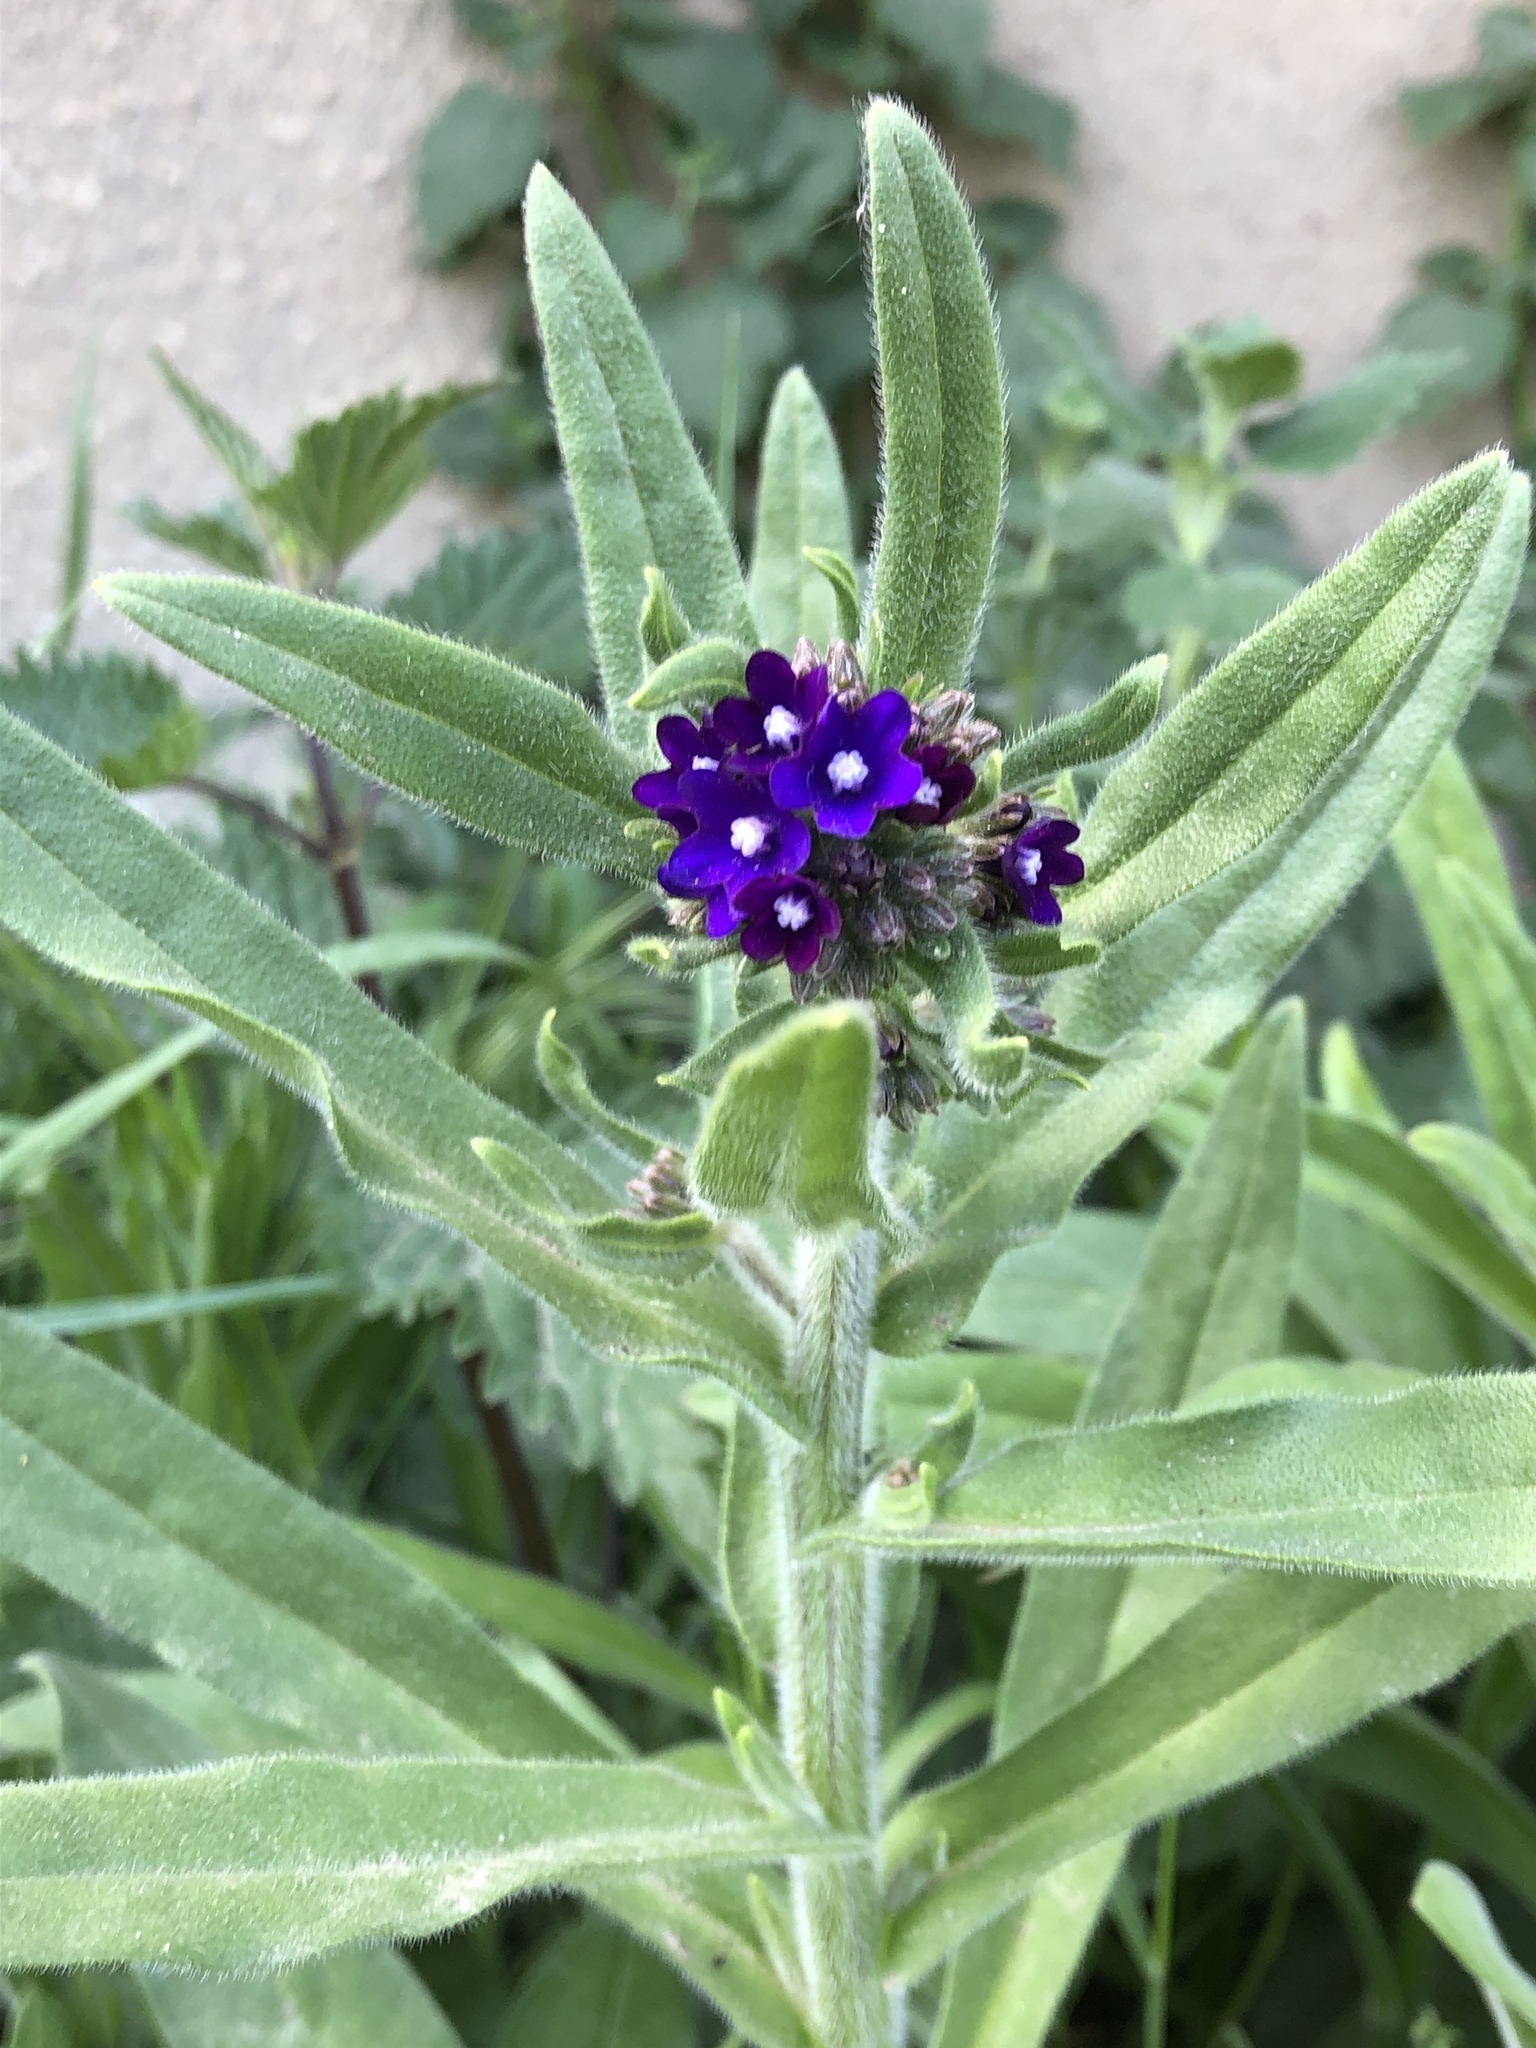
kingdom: Plantae
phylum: Tracheophyta
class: Magnoliopsida
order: Boraginales
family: Boraginaceae
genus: Anchusa
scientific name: Anchusa officinalis
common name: Alkanet
